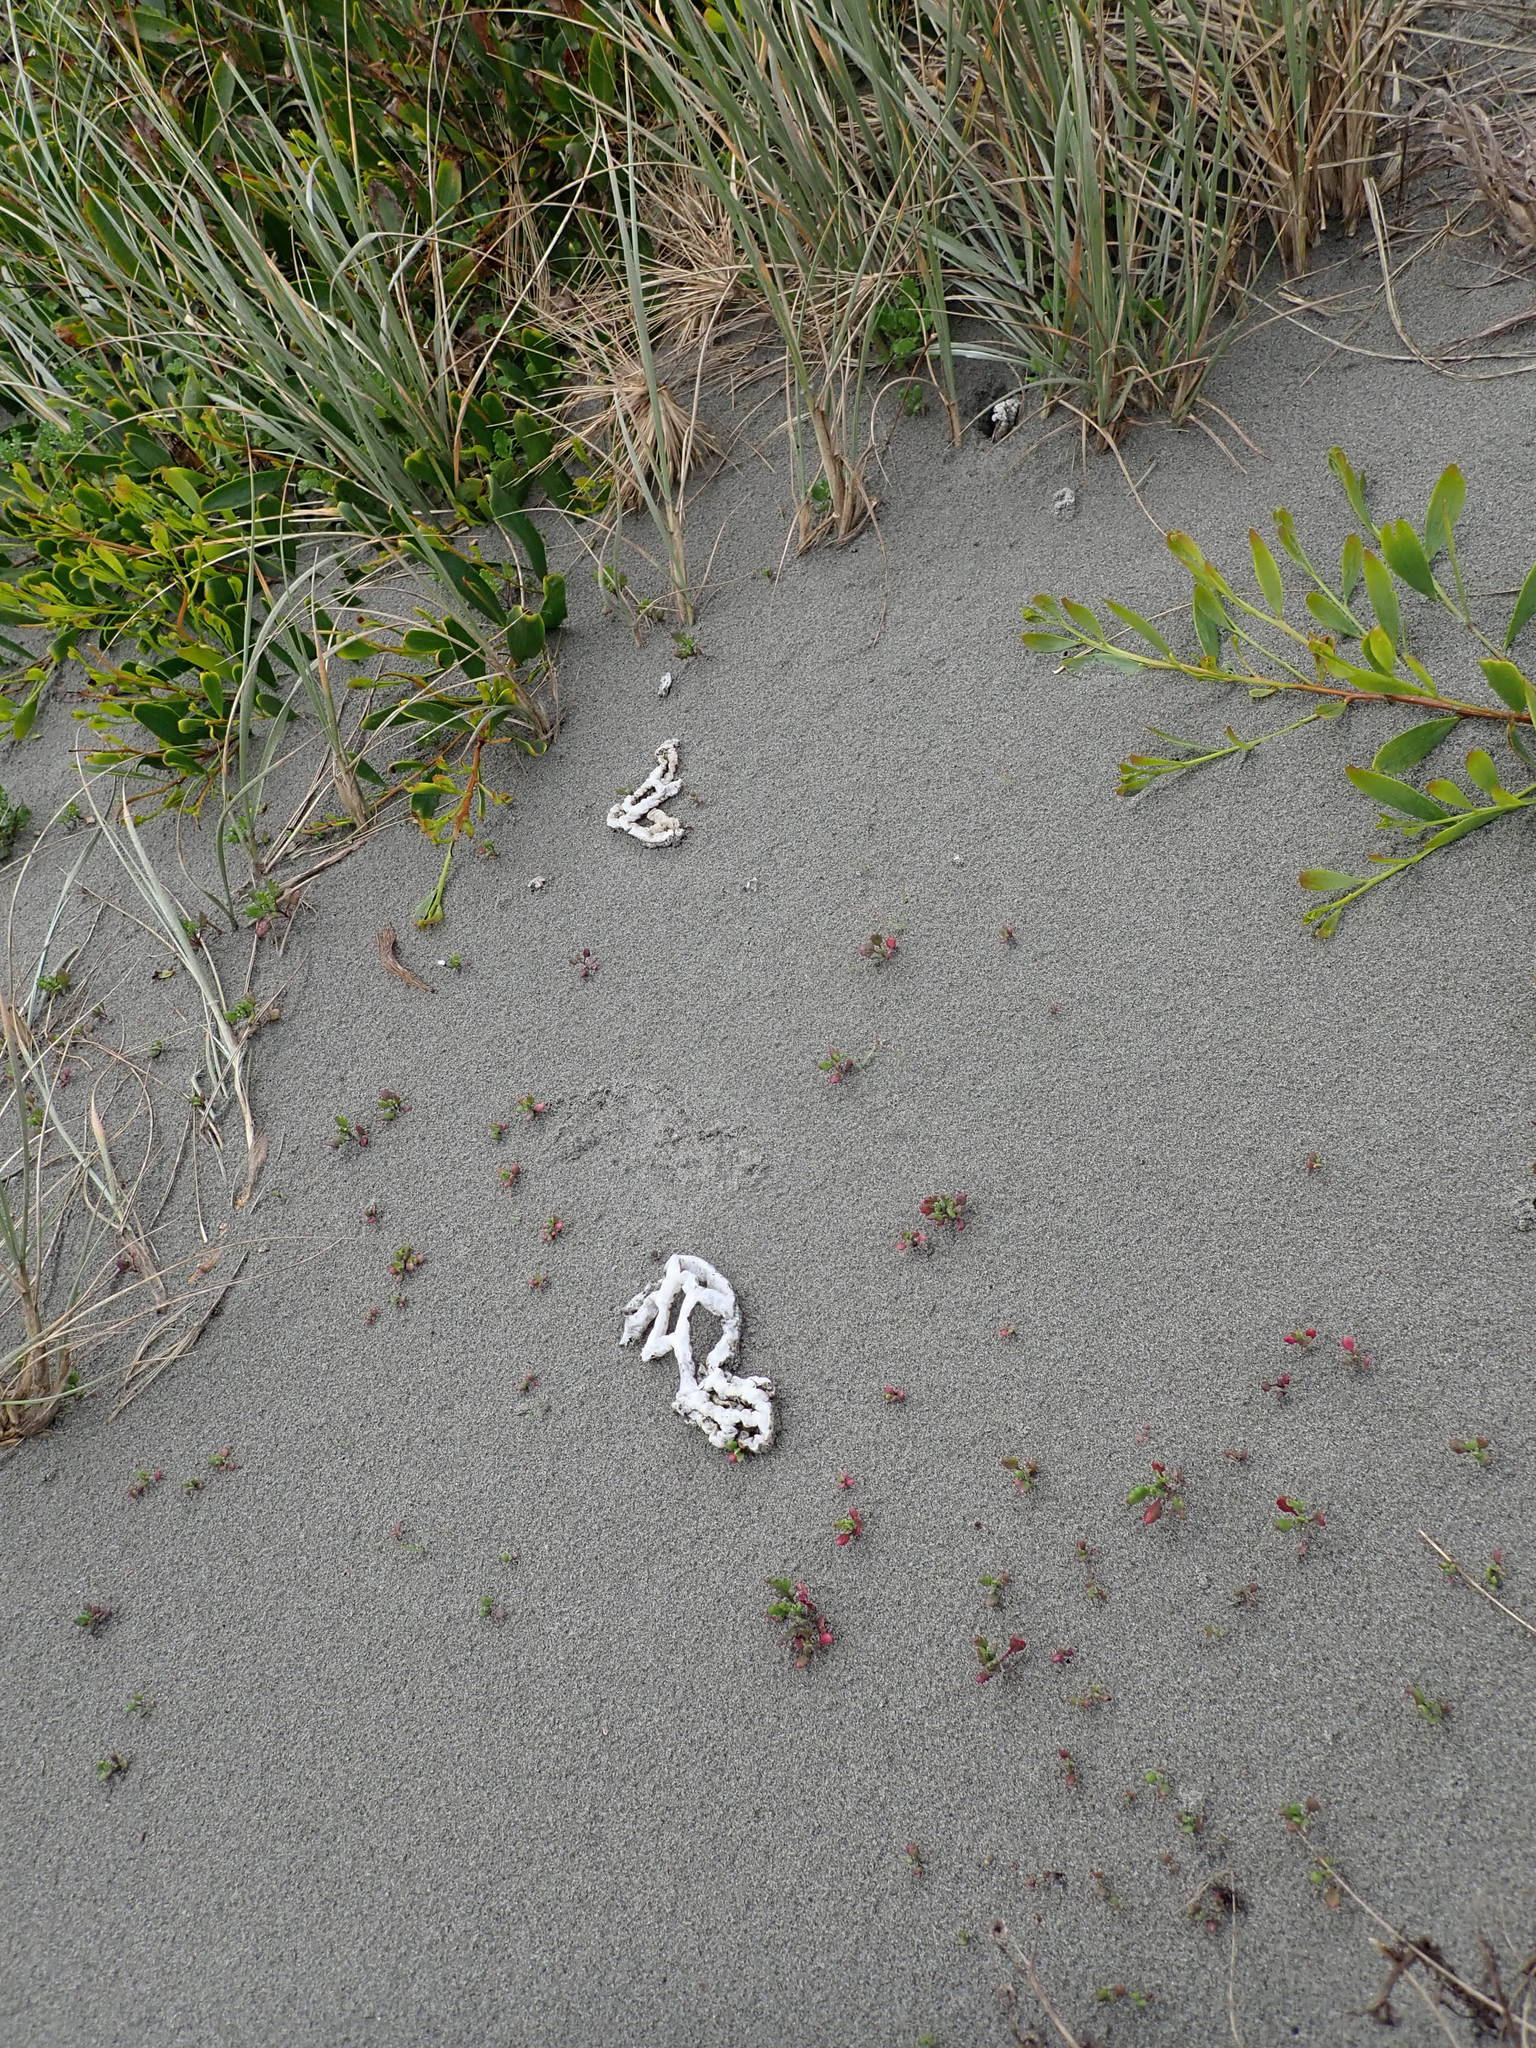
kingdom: Fungi
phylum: Basidiomycota
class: Agaricomycetes
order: Phallales
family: Phallaceae
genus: Ileodictyon
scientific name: Ileodictyon cibarium
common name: Basket fungus
